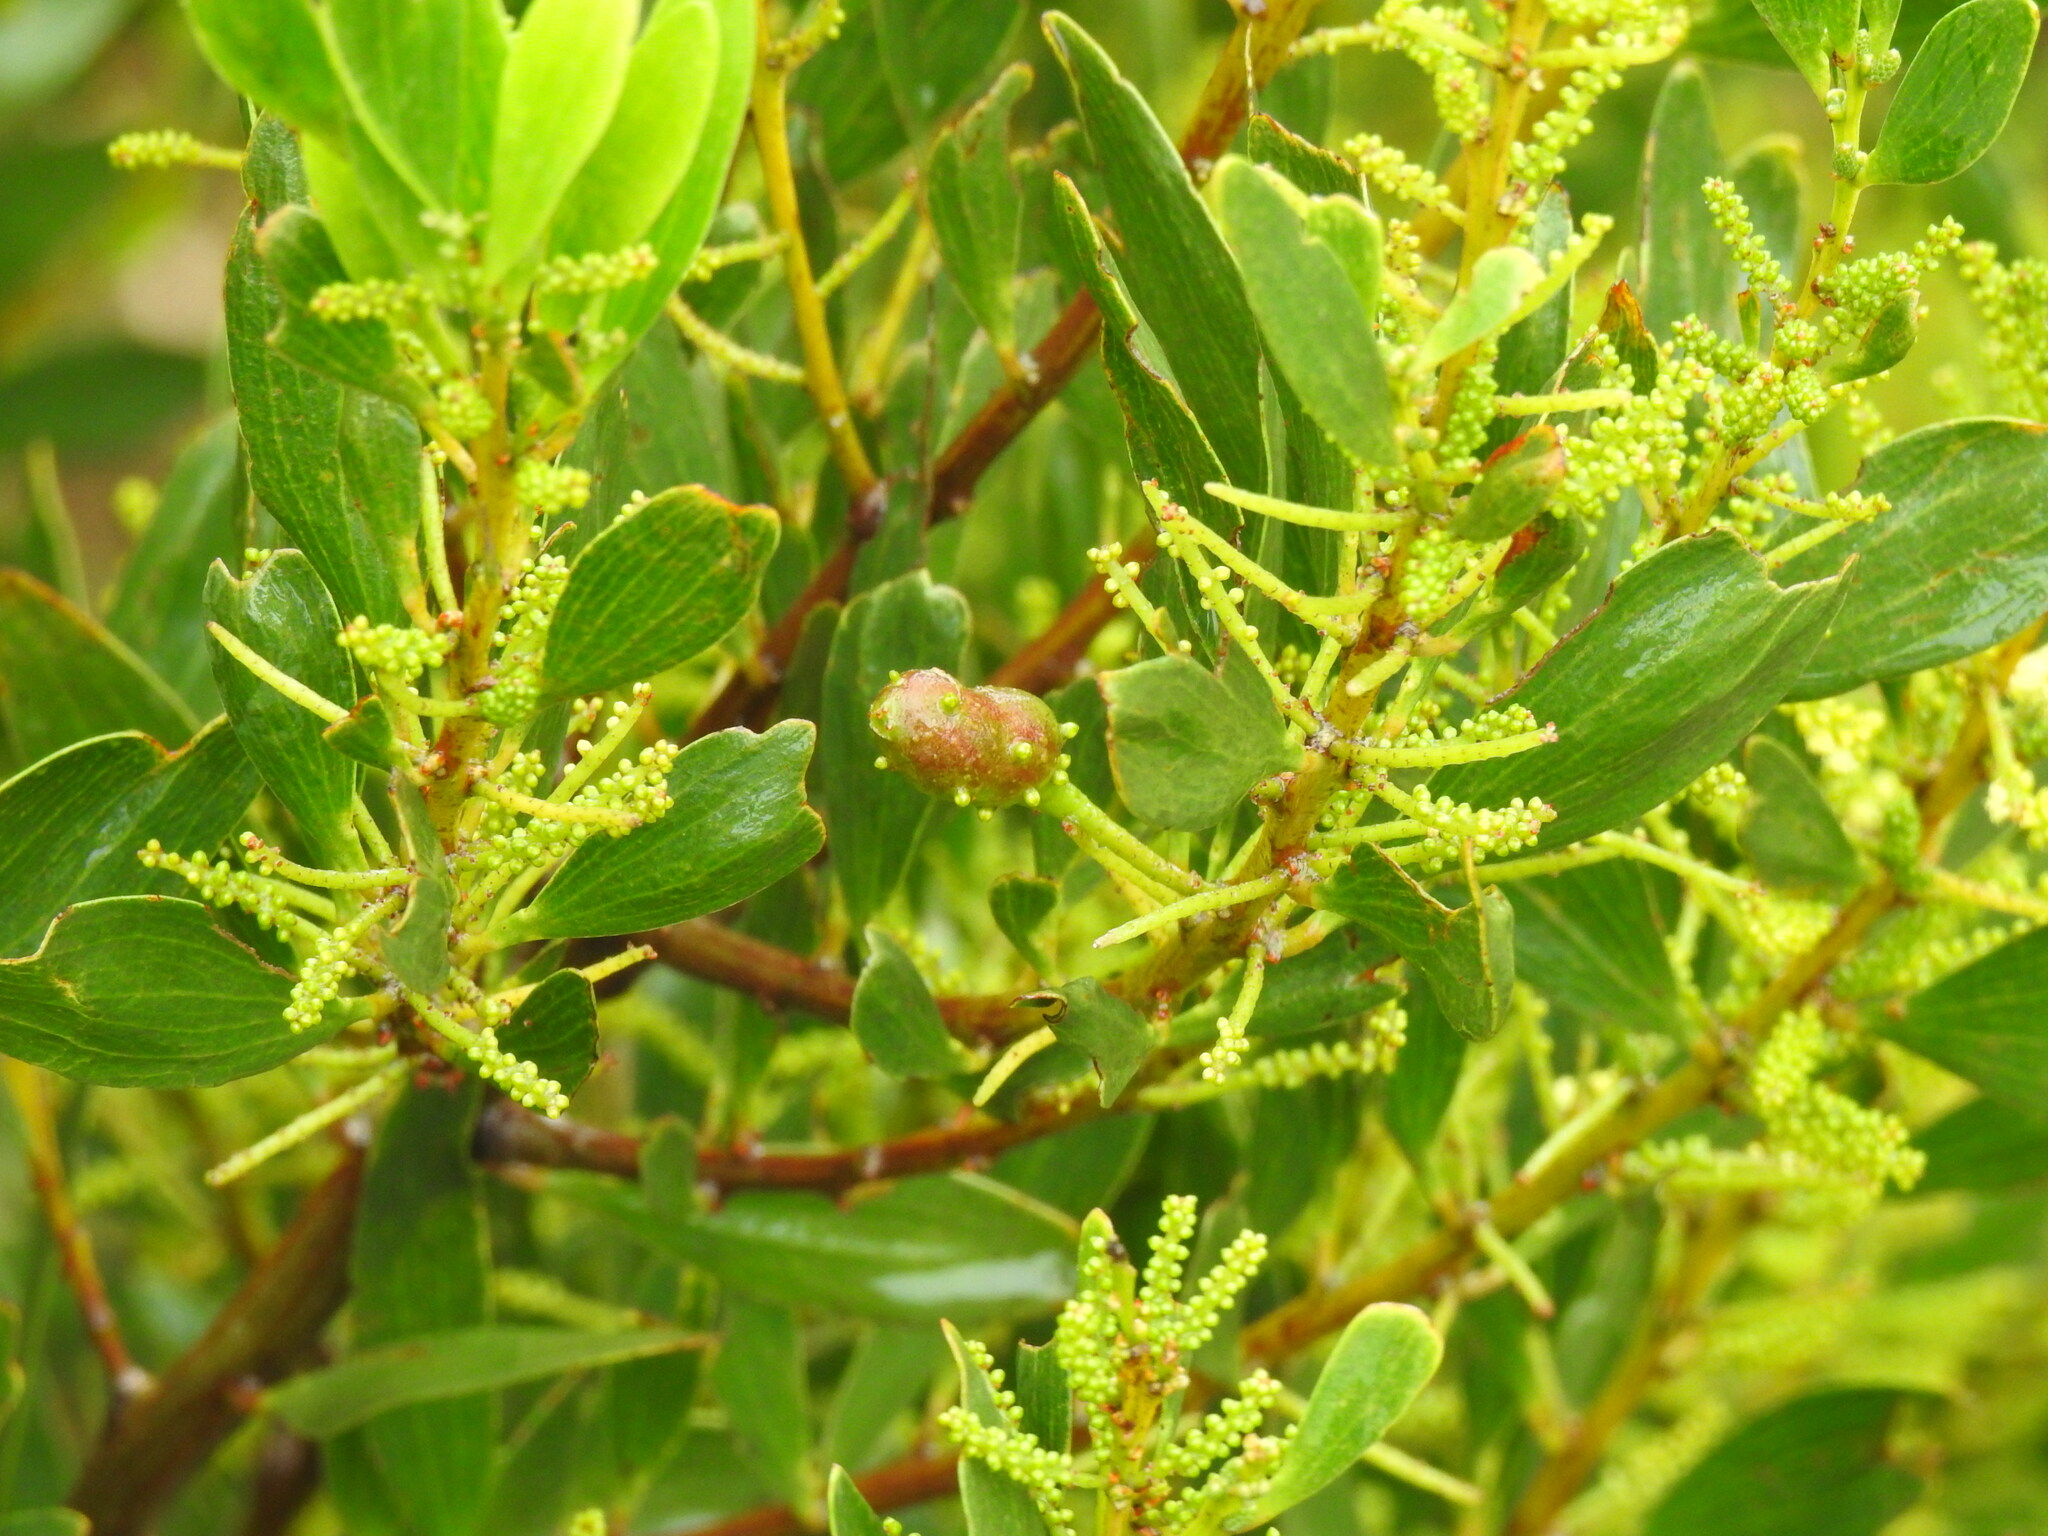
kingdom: Animalia
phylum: Arthropoda
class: Insecta
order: Hymenoptera
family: Pteromalidae
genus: Trichilogaster
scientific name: Trichilogaster acaciaelongifoliae
